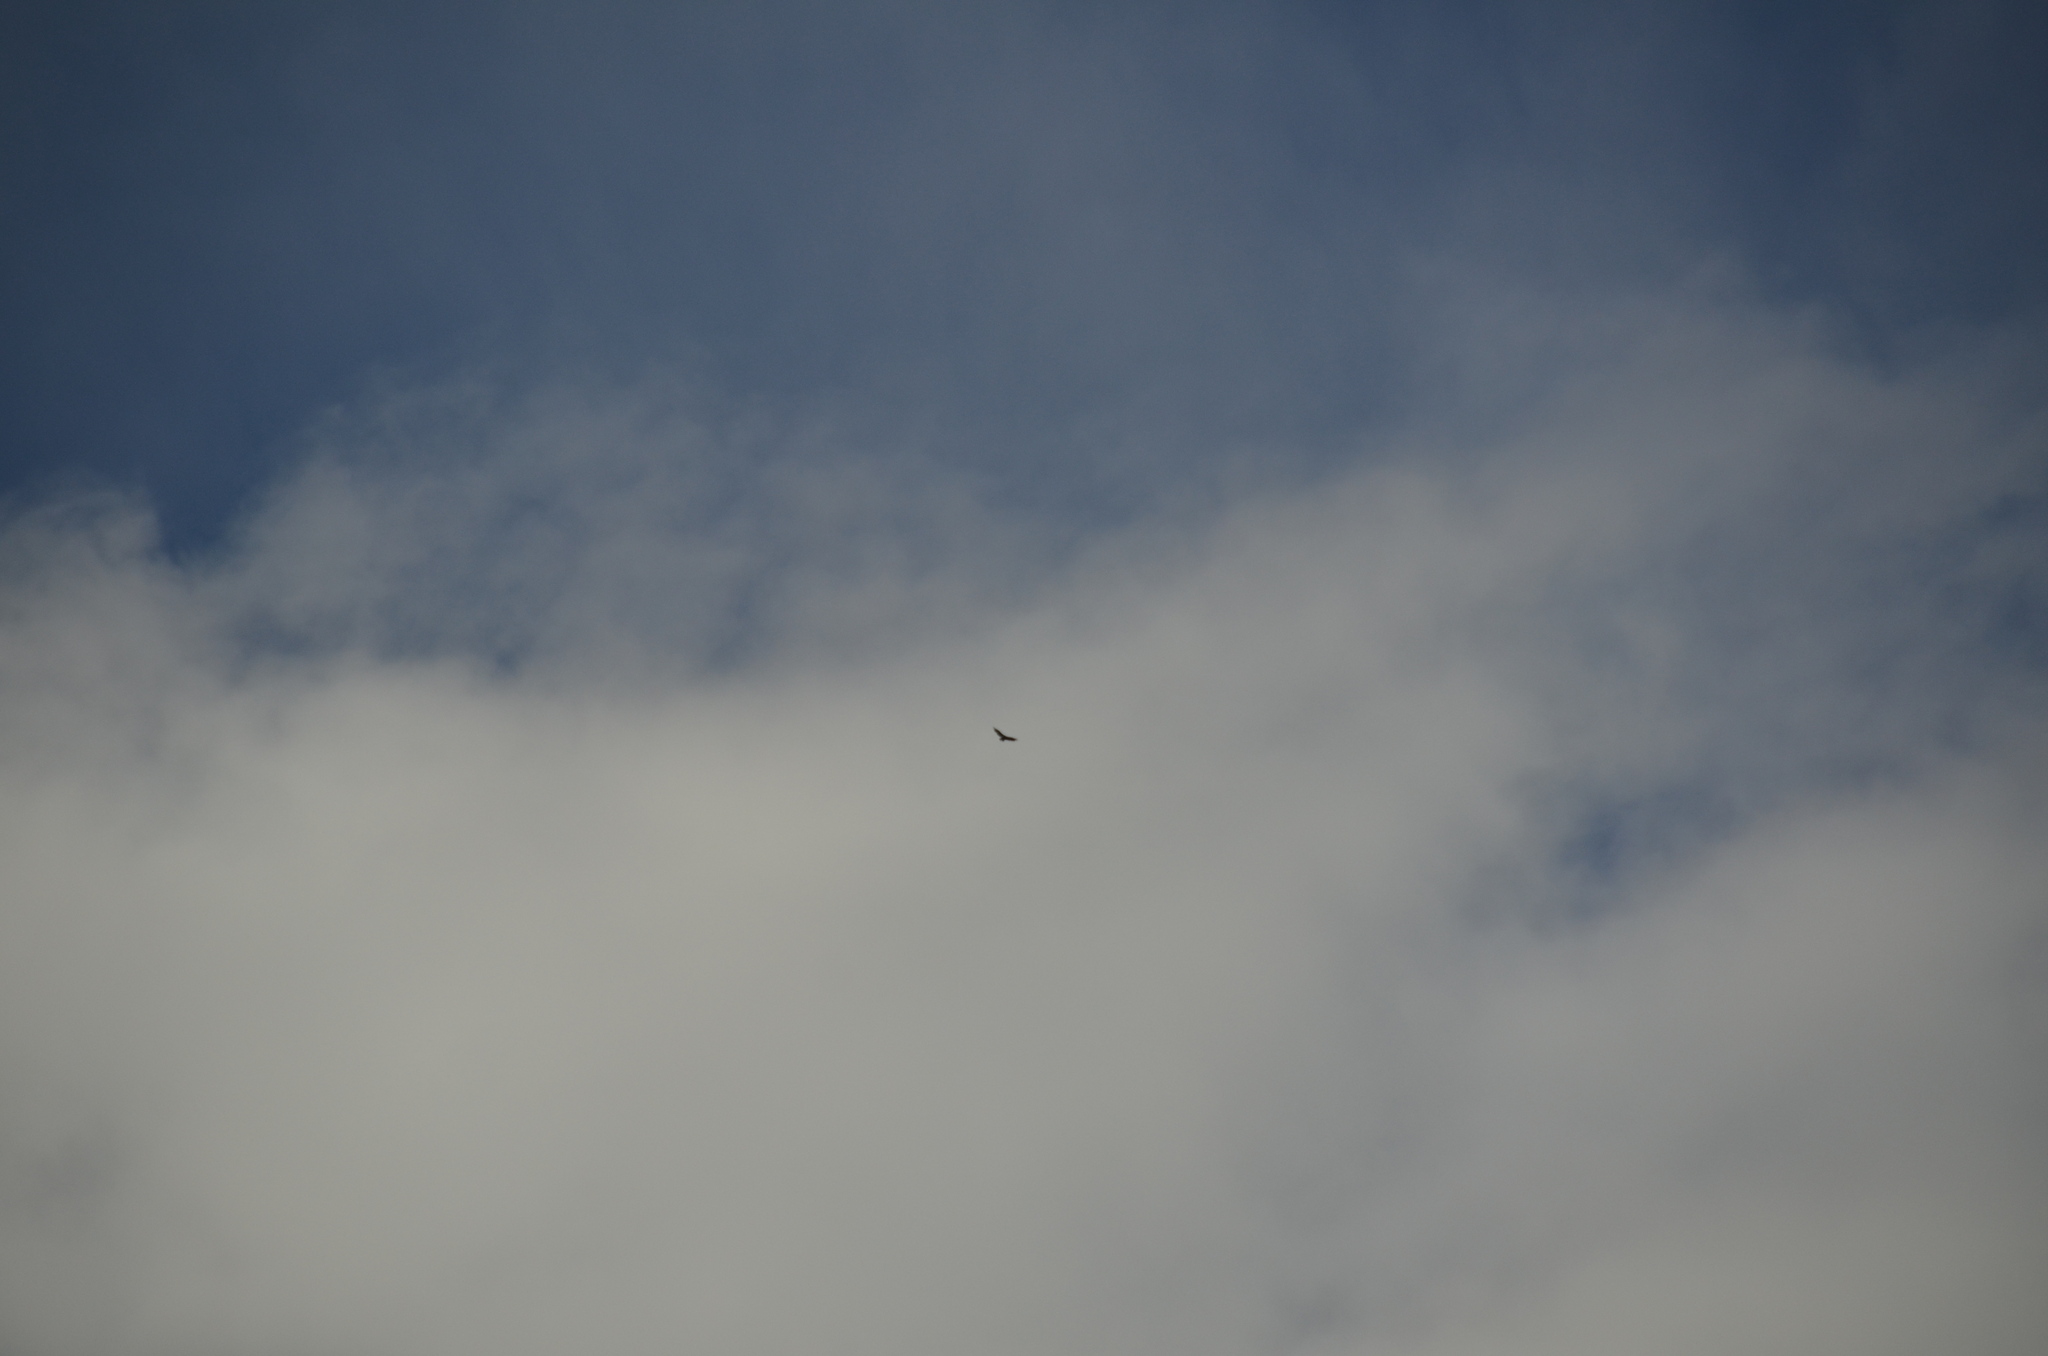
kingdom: Animalia
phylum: Chordata
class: Aves
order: Accipitriformes
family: Cathartidae
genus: Cathartes
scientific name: Cathartes aura
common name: Turkey vulture
